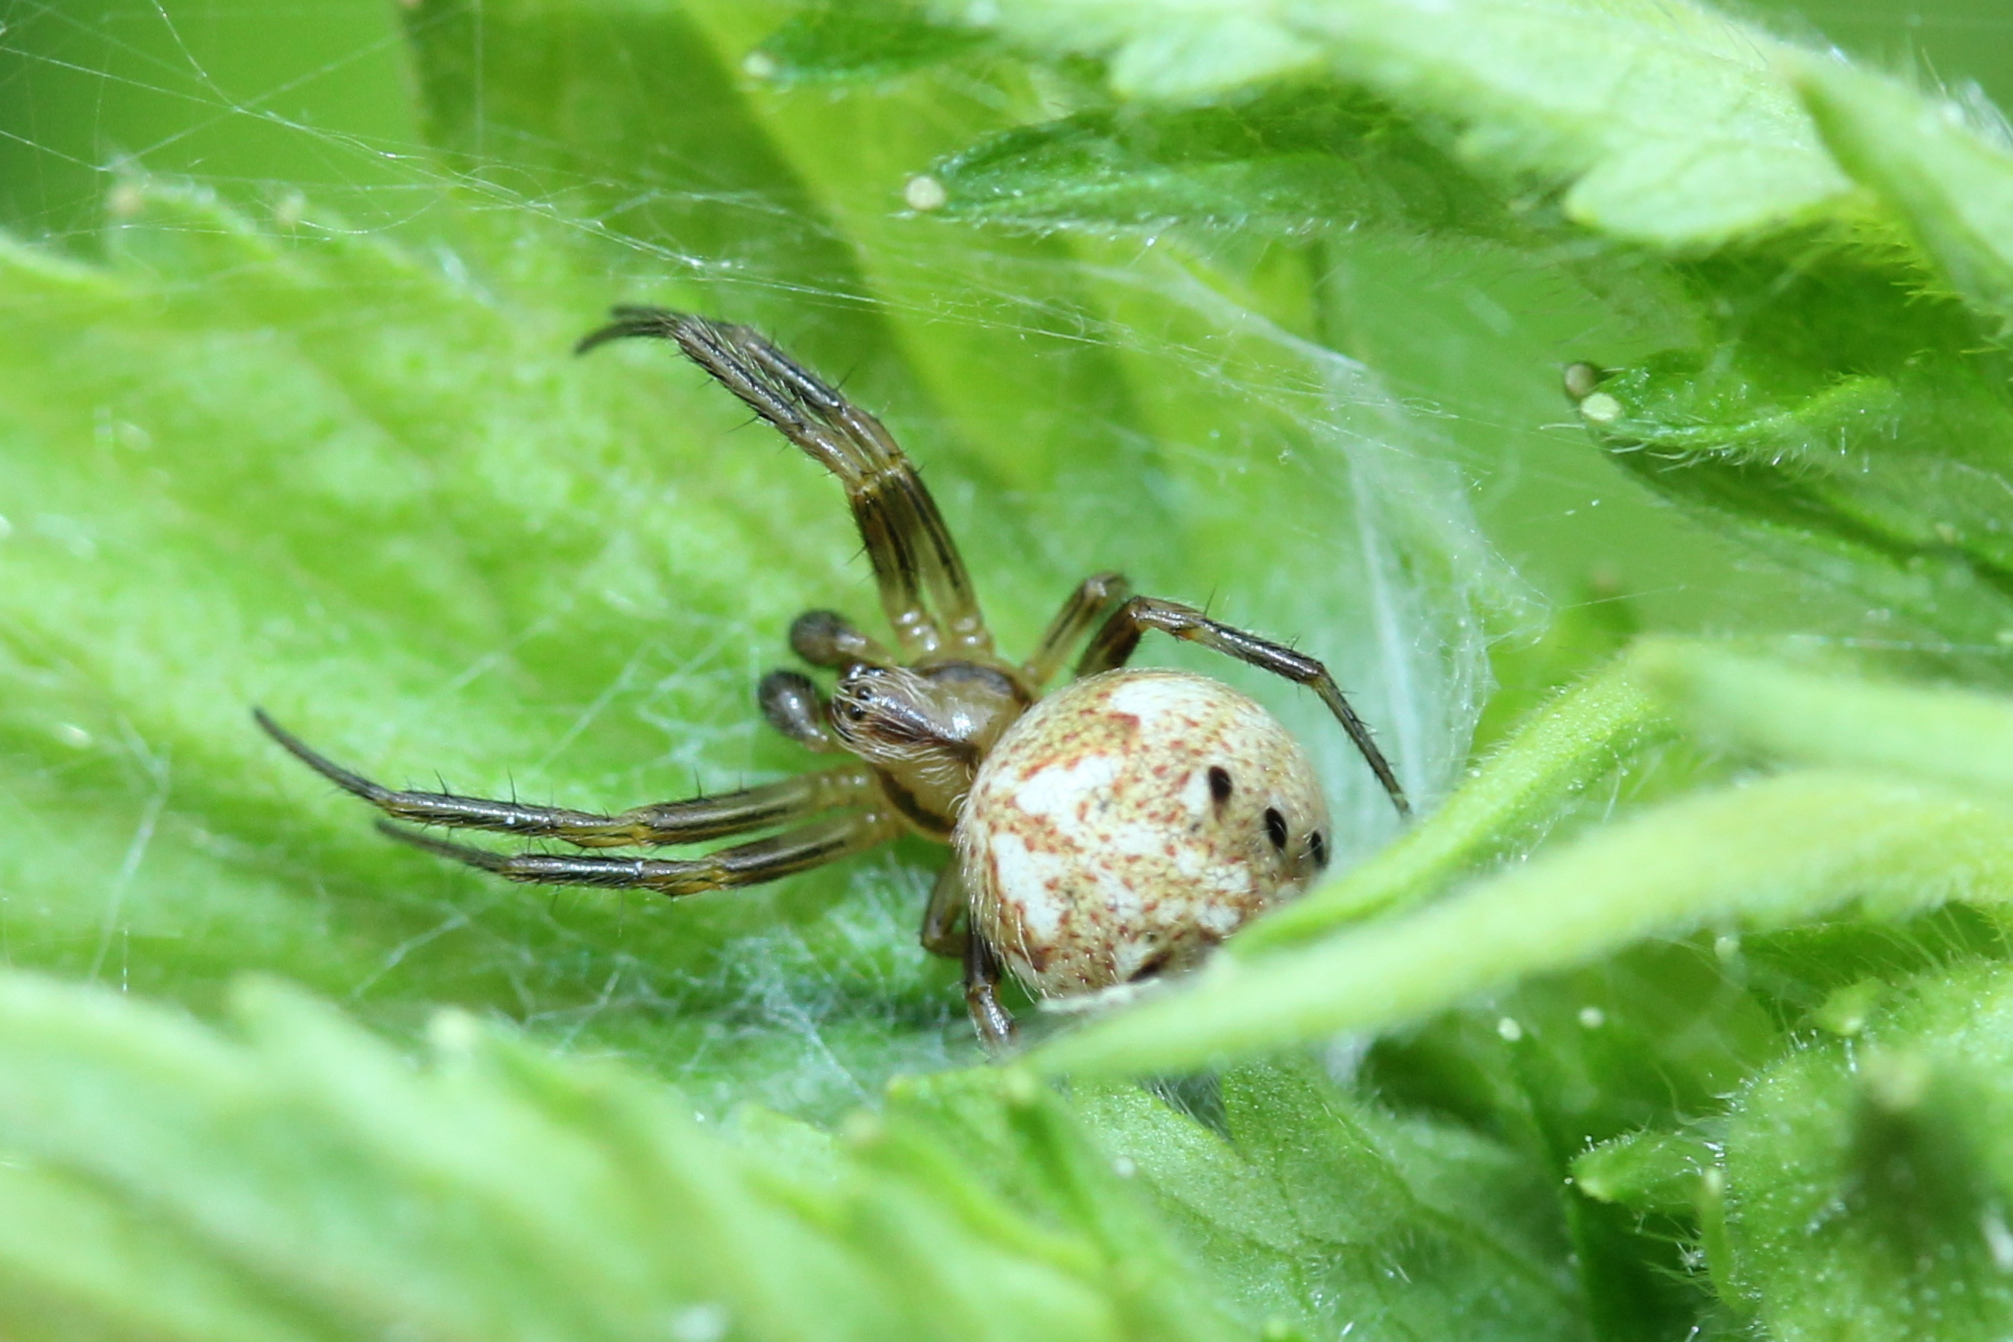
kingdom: Animalia
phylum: Arthropoda
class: Arachnida
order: Araneae
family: Araneidae
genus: Neoscona
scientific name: Neoscona arabesca
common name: Orb weavers
